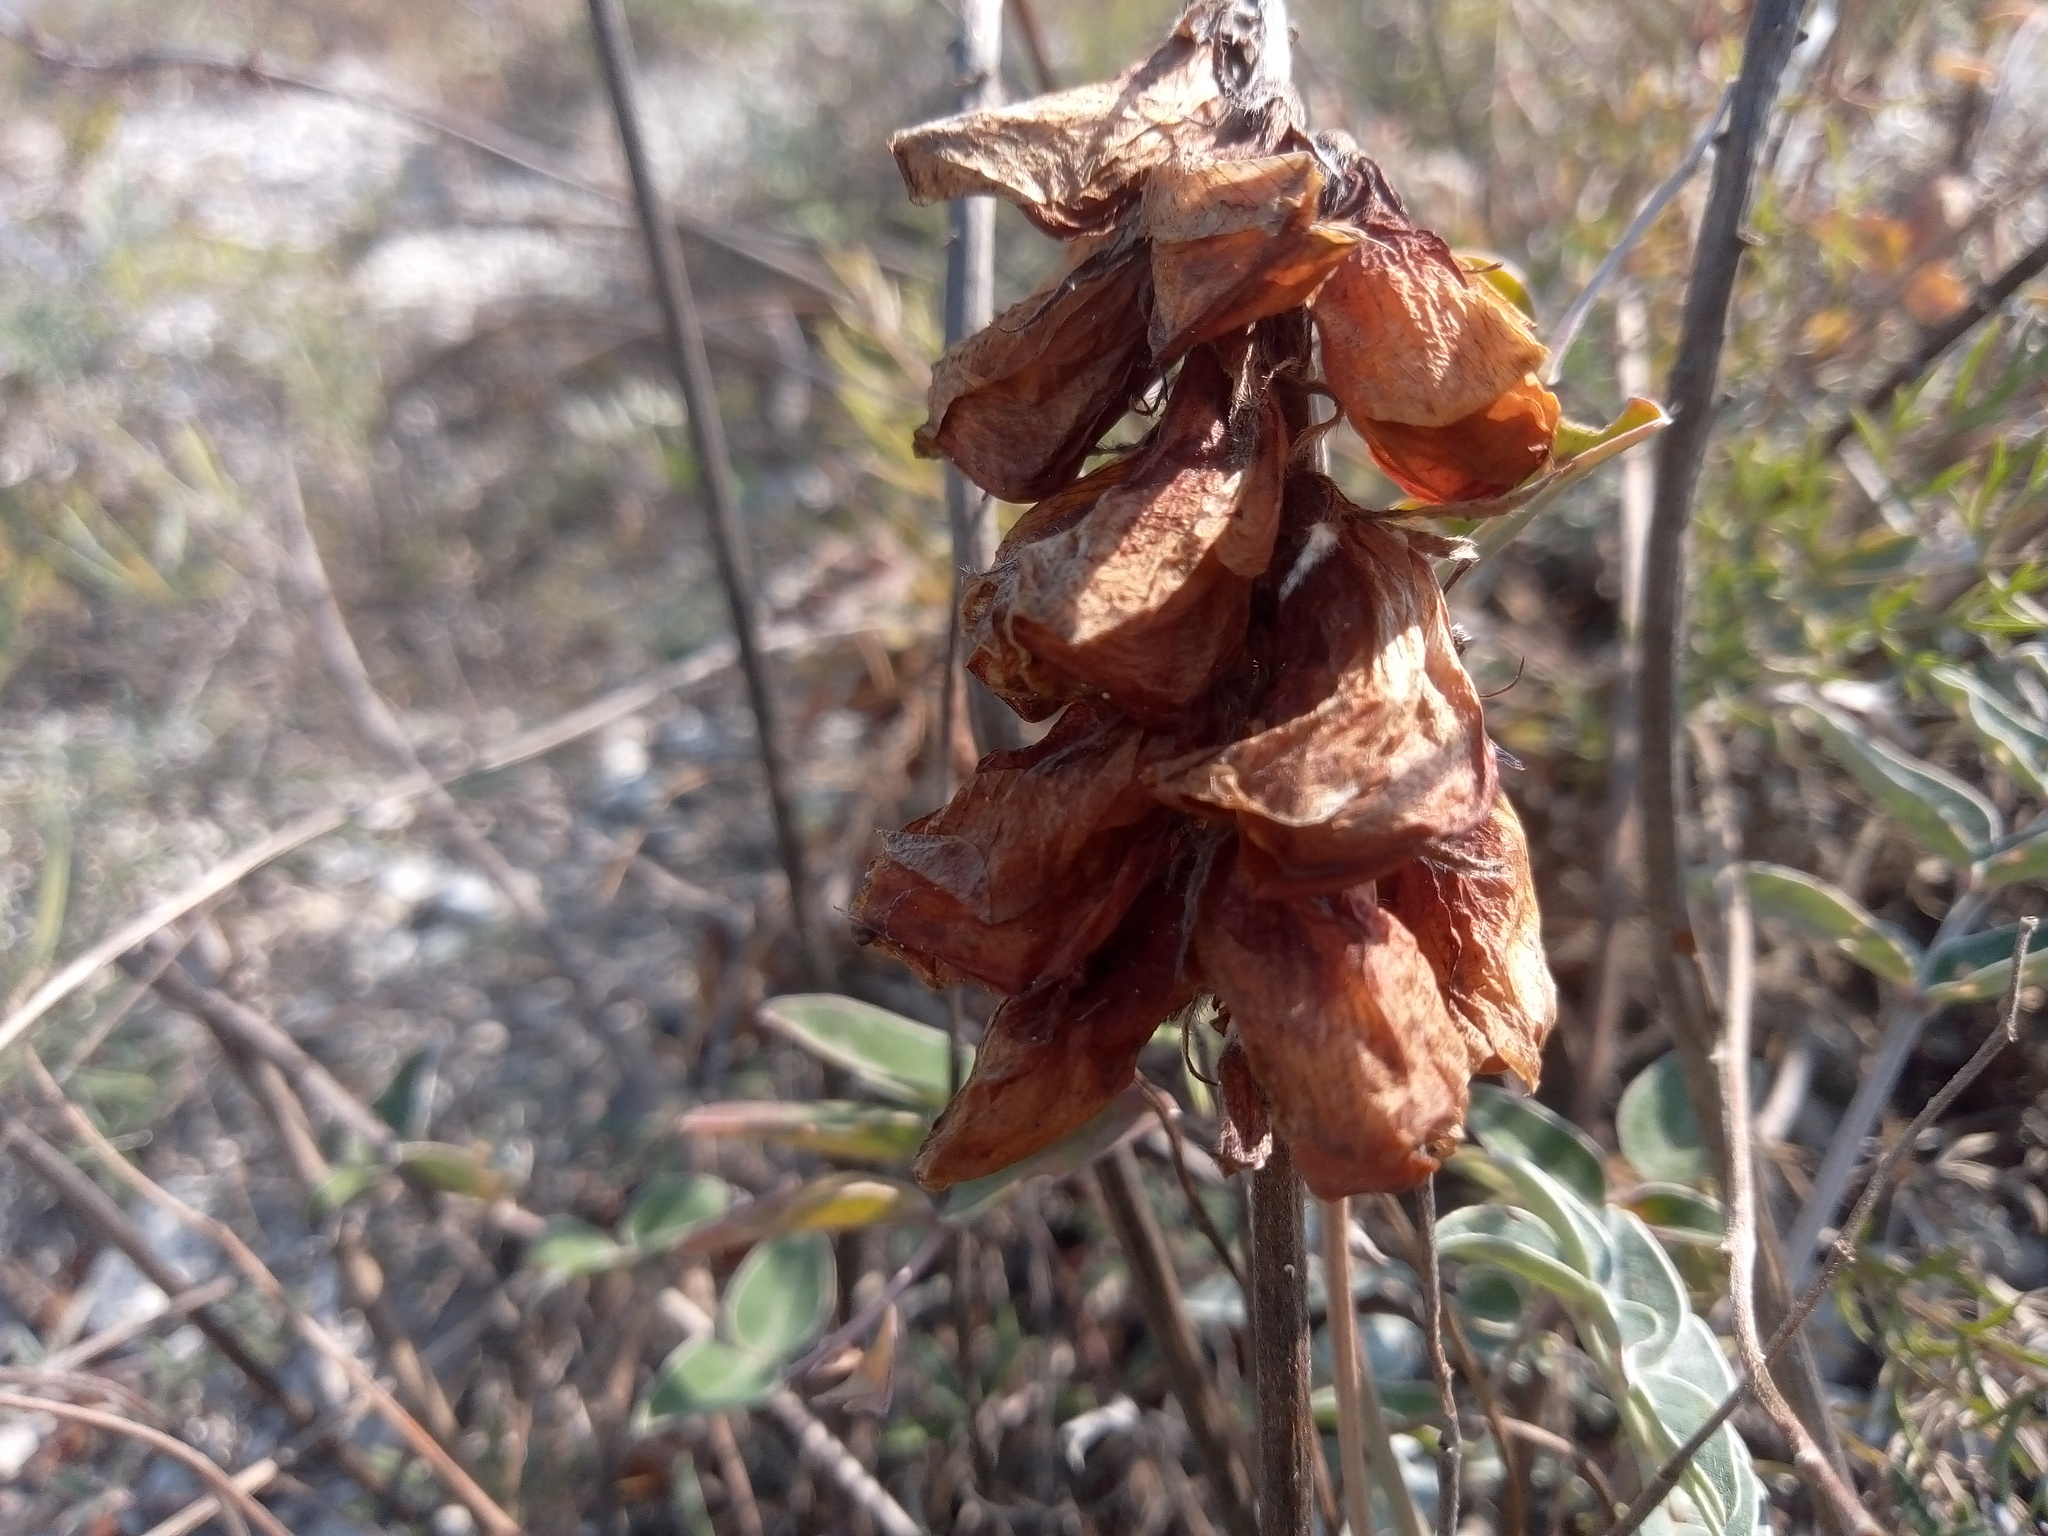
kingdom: Plantae
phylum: Tracheophyta
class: Magnoliopsida
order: Fabales
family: Fabaceae
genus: Hedysarum
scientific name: Hedysarum grandiflorum
